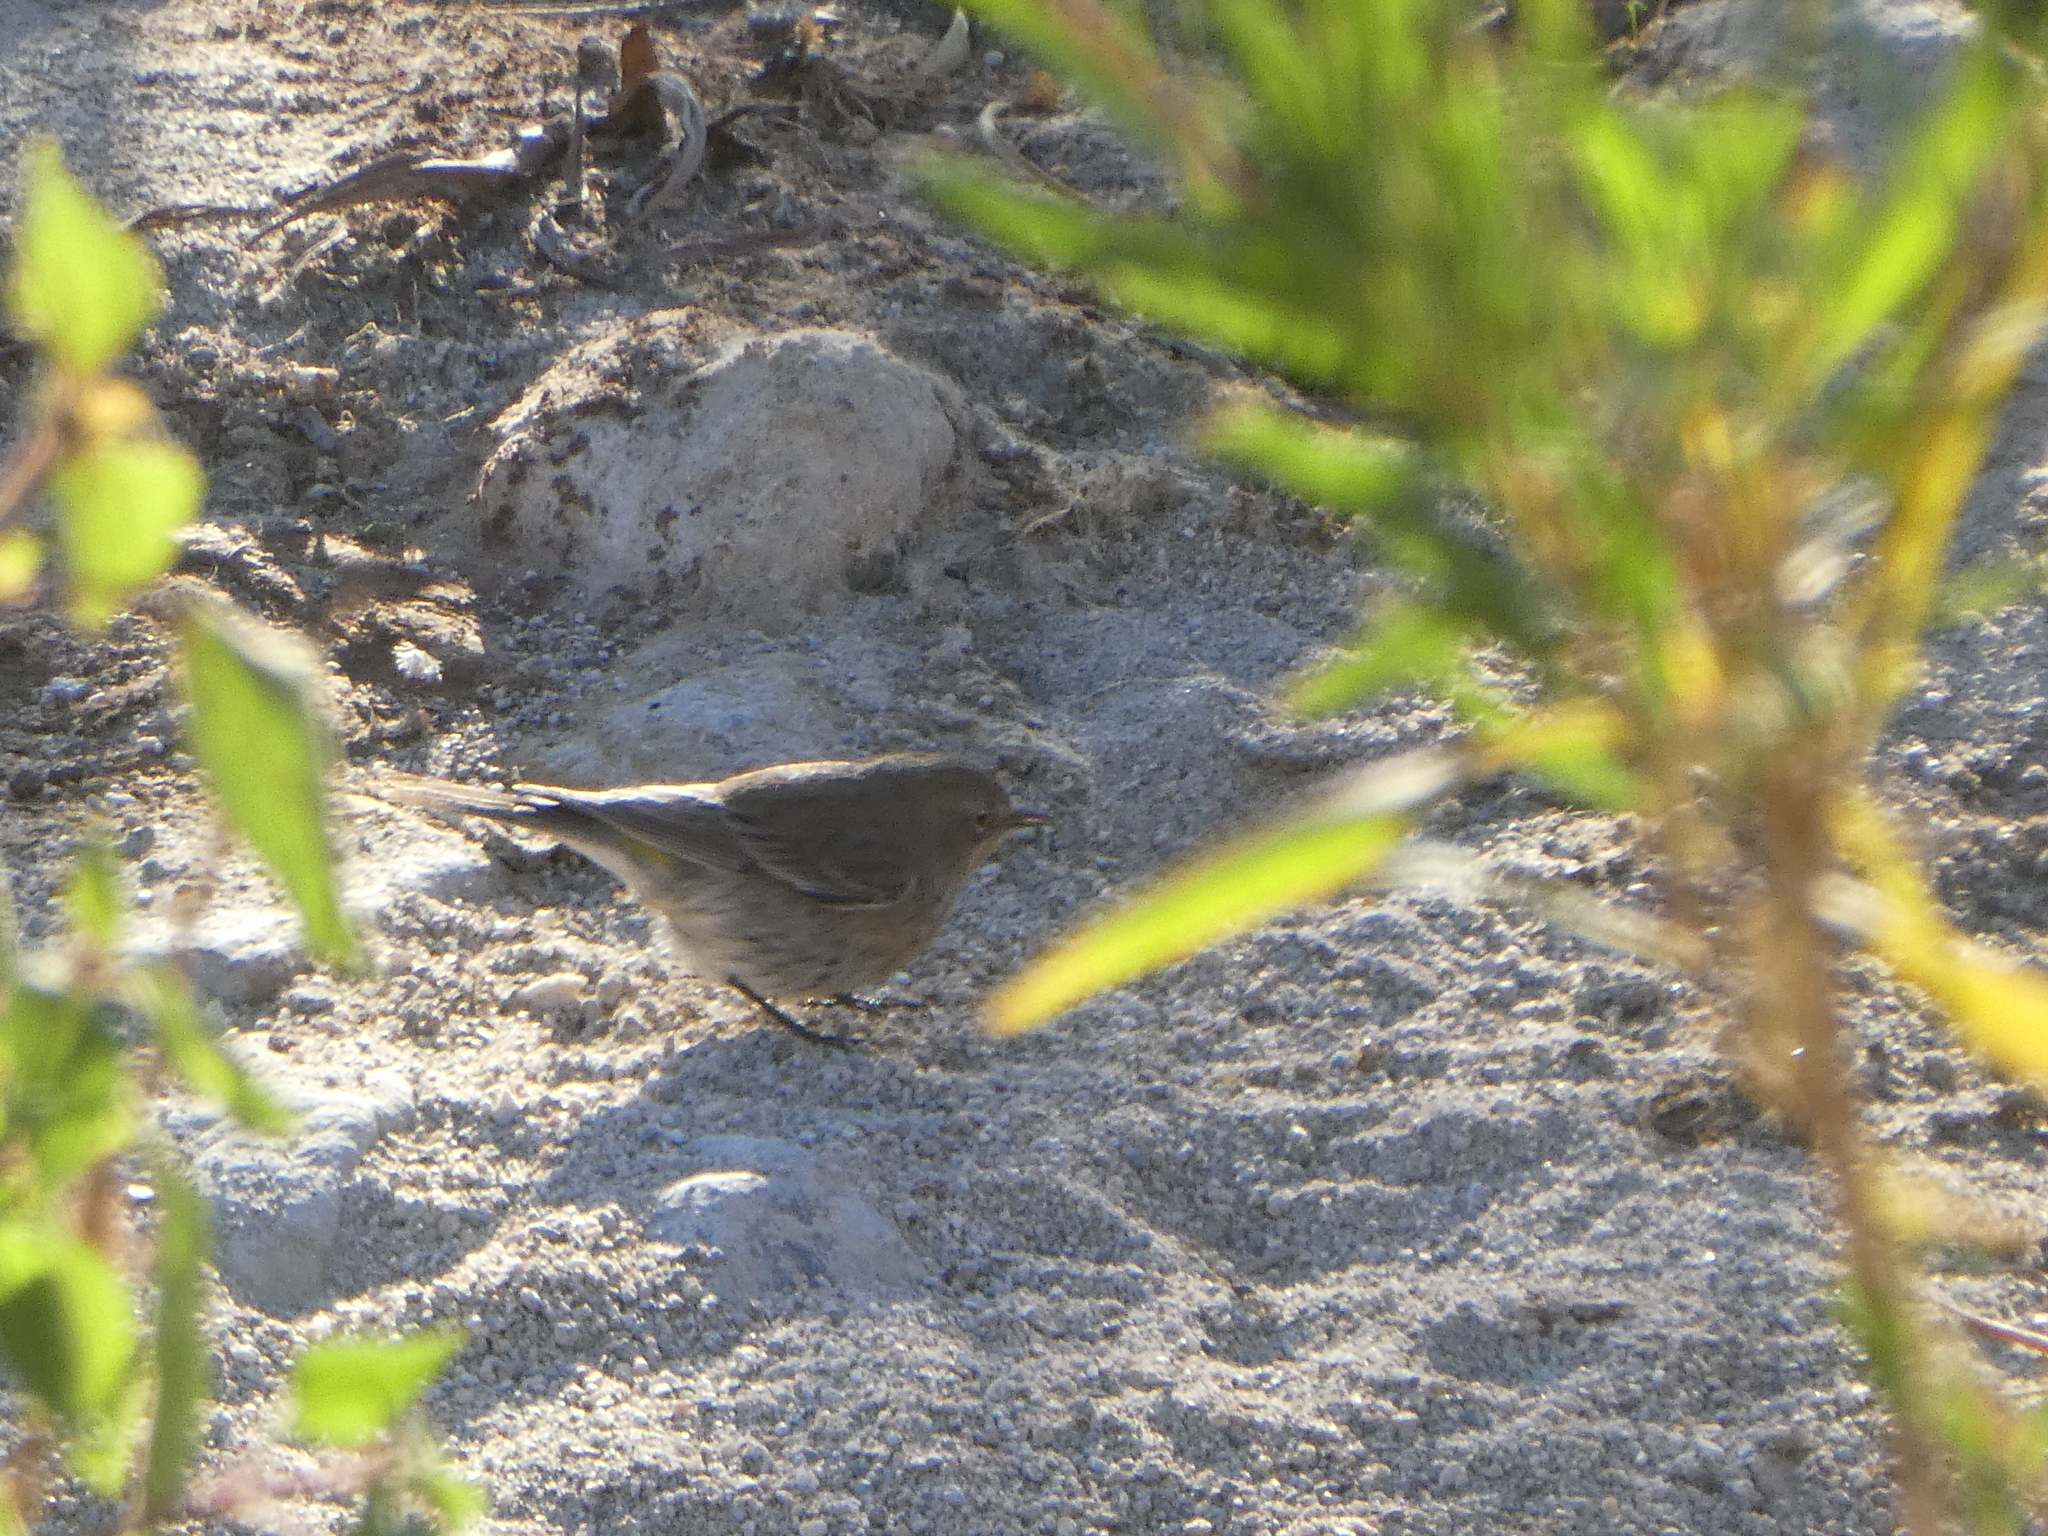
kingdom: Animalia
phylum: Chordata
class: Aves
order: Passeriformes
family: Parulidae
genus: Setophaga
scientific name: Setophaga coronata
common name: Myrtle warbler
